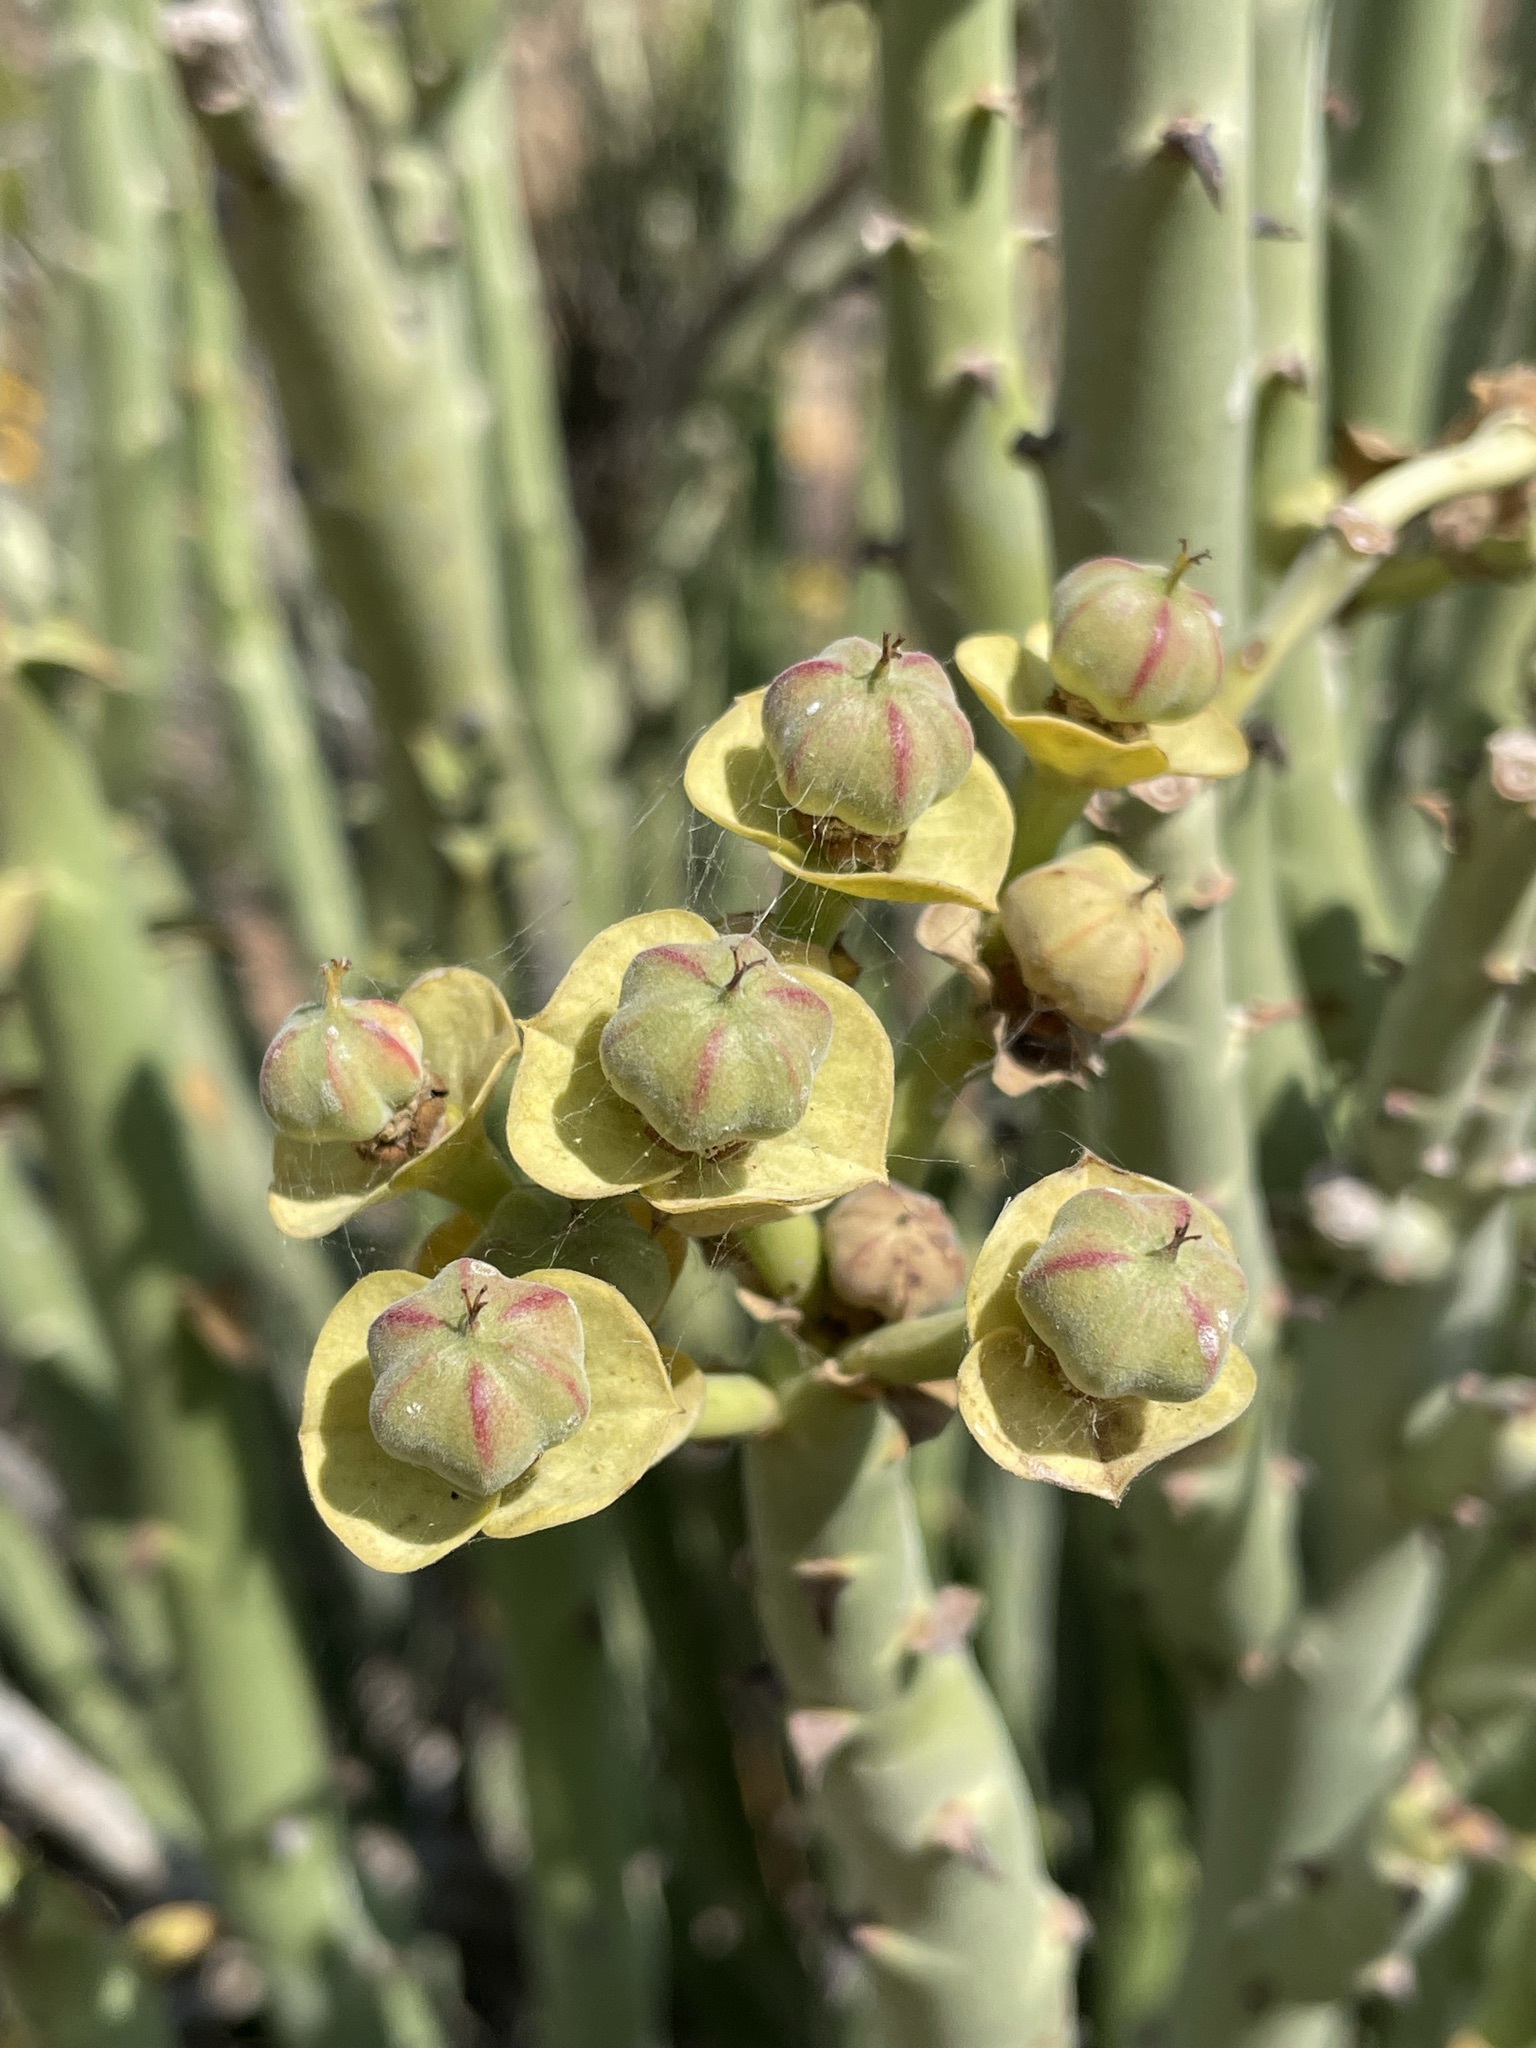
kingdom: Plantae
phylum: Tracheophyta
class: Magnoliopsida
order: Malpighiales
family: Euphorbiaceae
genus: Euphorbia
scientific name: Euphorbia dregeana
